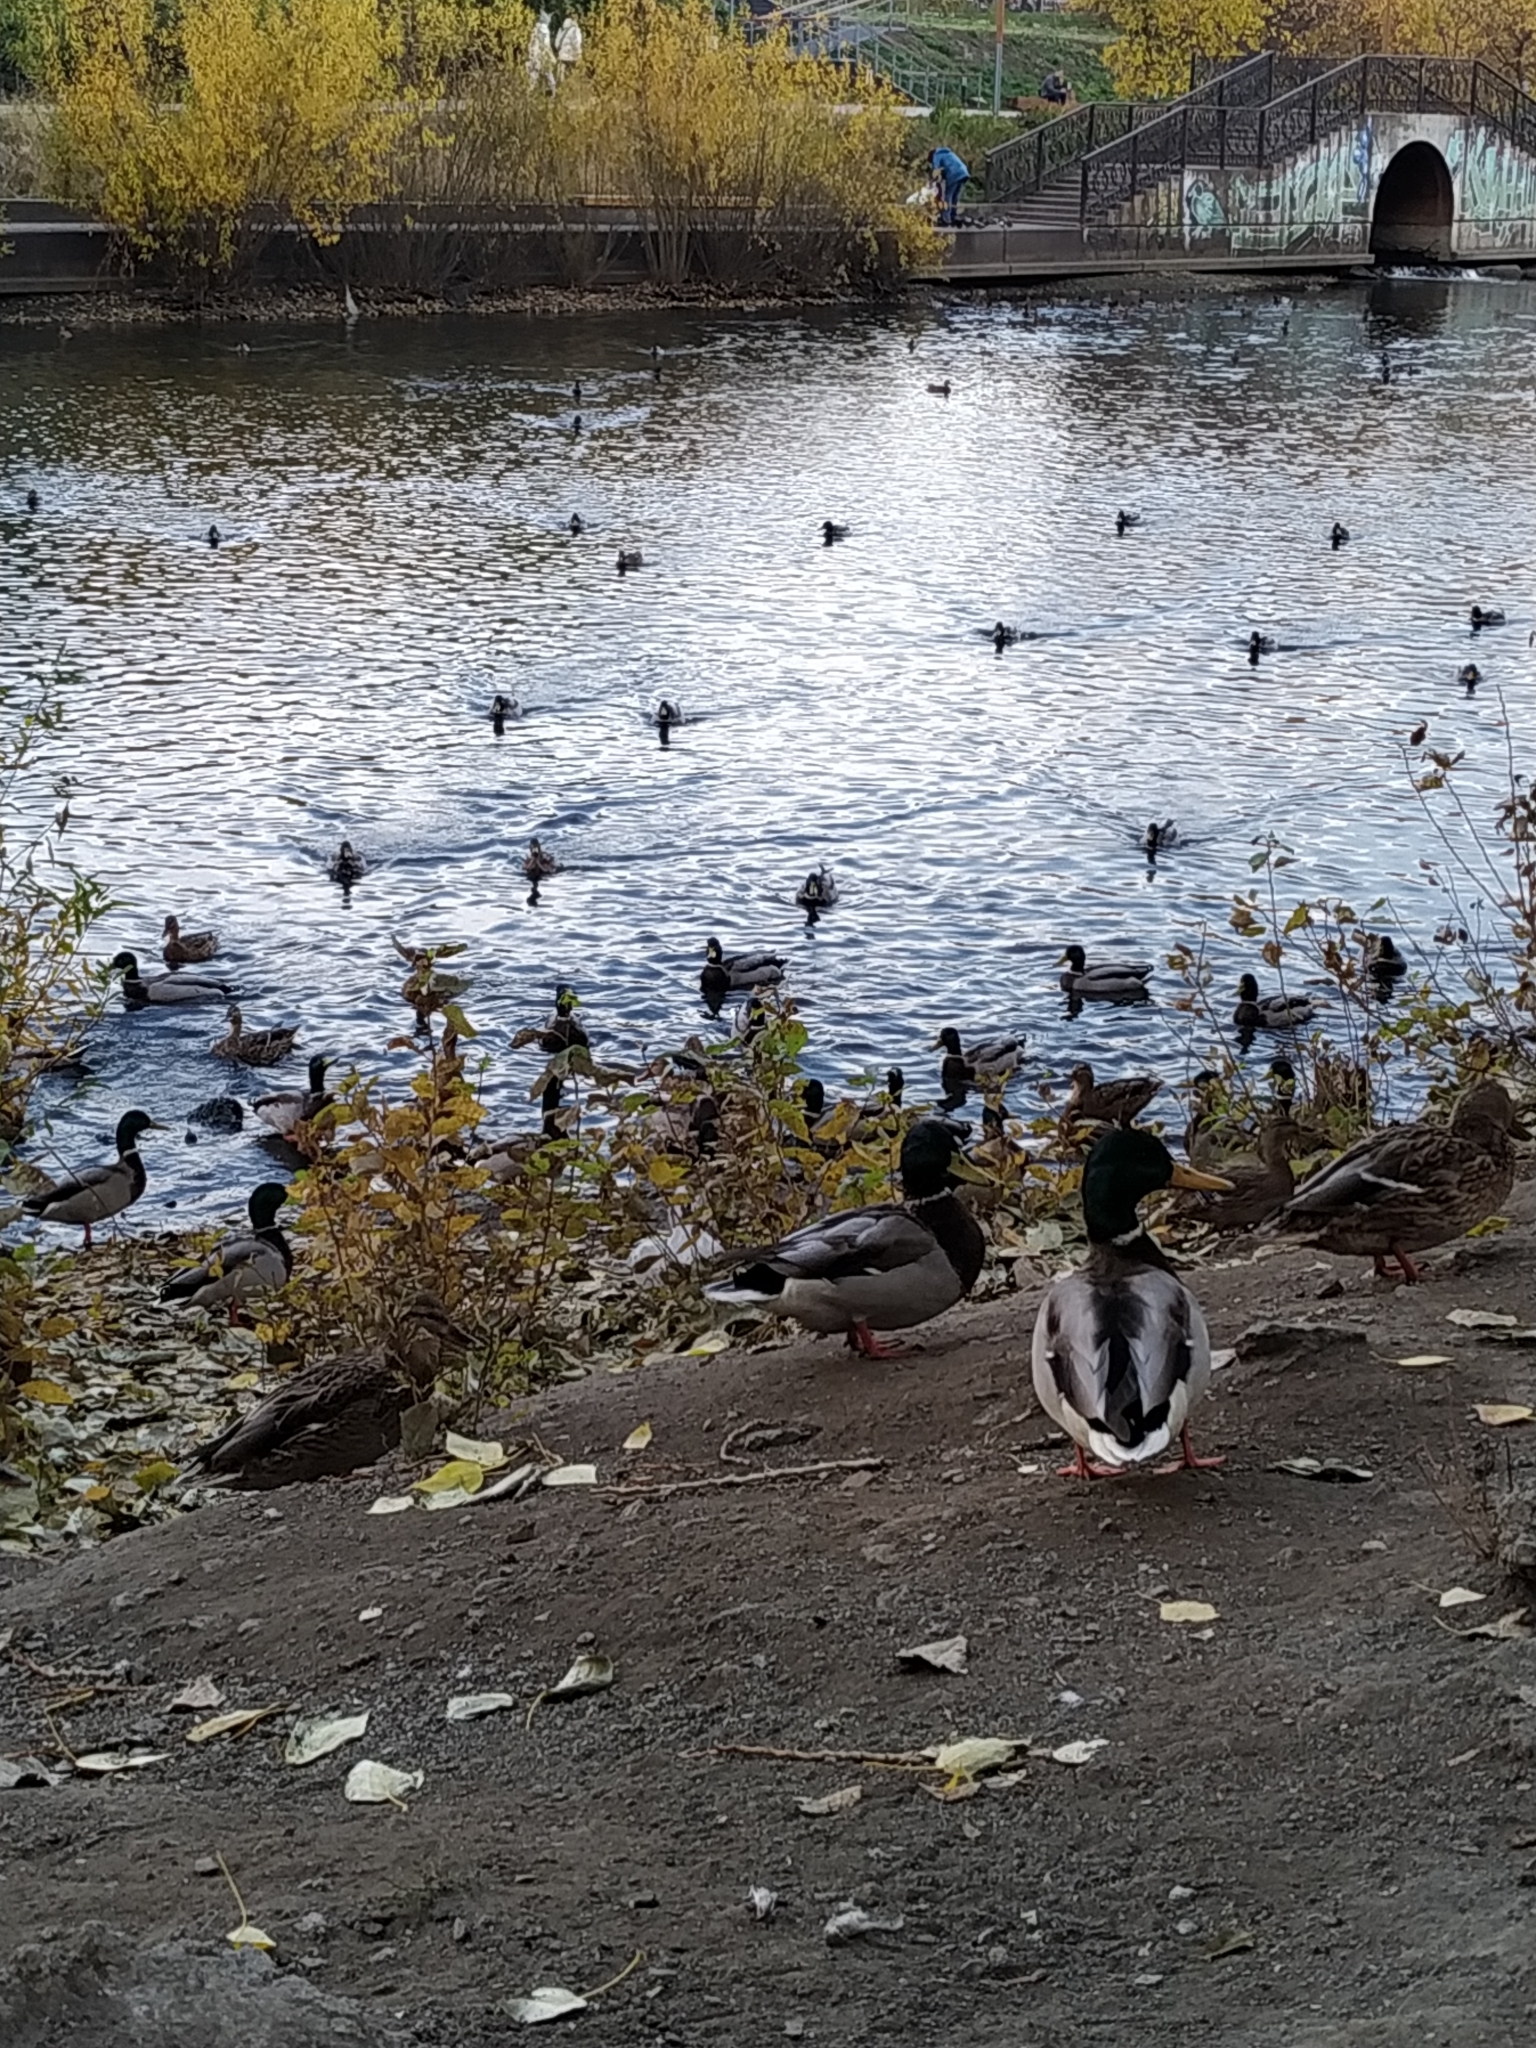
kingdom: Animalia
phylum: Chordata
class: Aves
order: Anseriformes
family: Anatidae
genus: Anas
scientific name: Anas platyrhynchos
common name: Mallard
